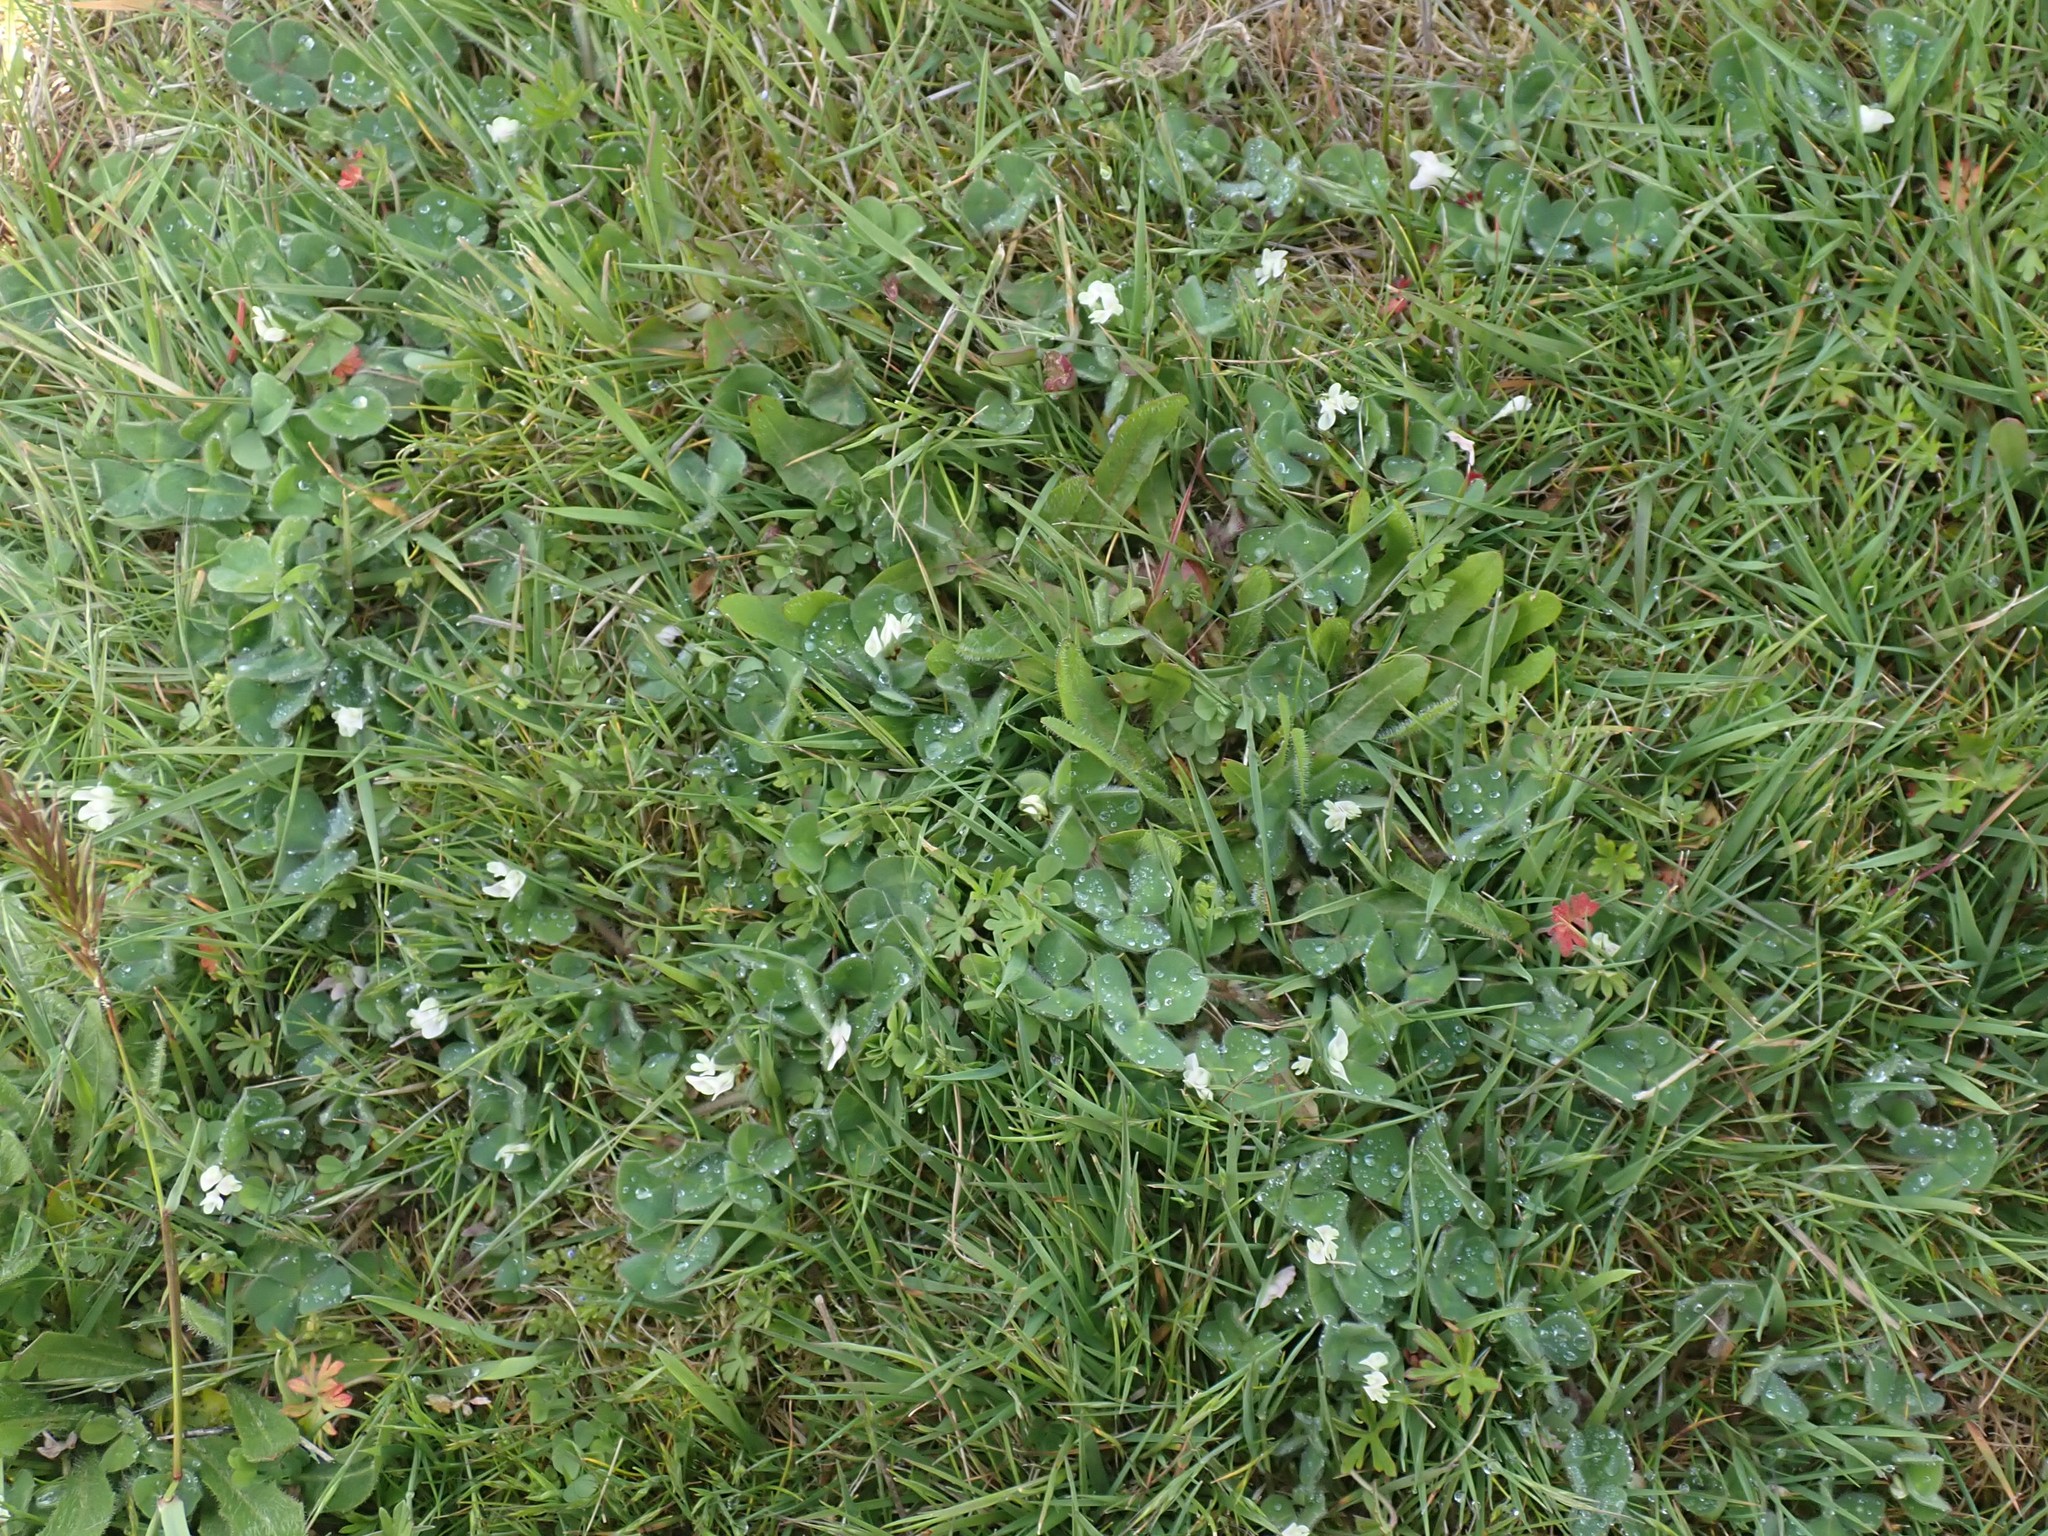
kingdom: Plantae
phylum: Tracheophyta
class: Magnoliopsida
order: Fabales
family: Fabaceae
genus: Trifolium
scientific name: Trifolium subterraneum
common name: Subterranean clover
